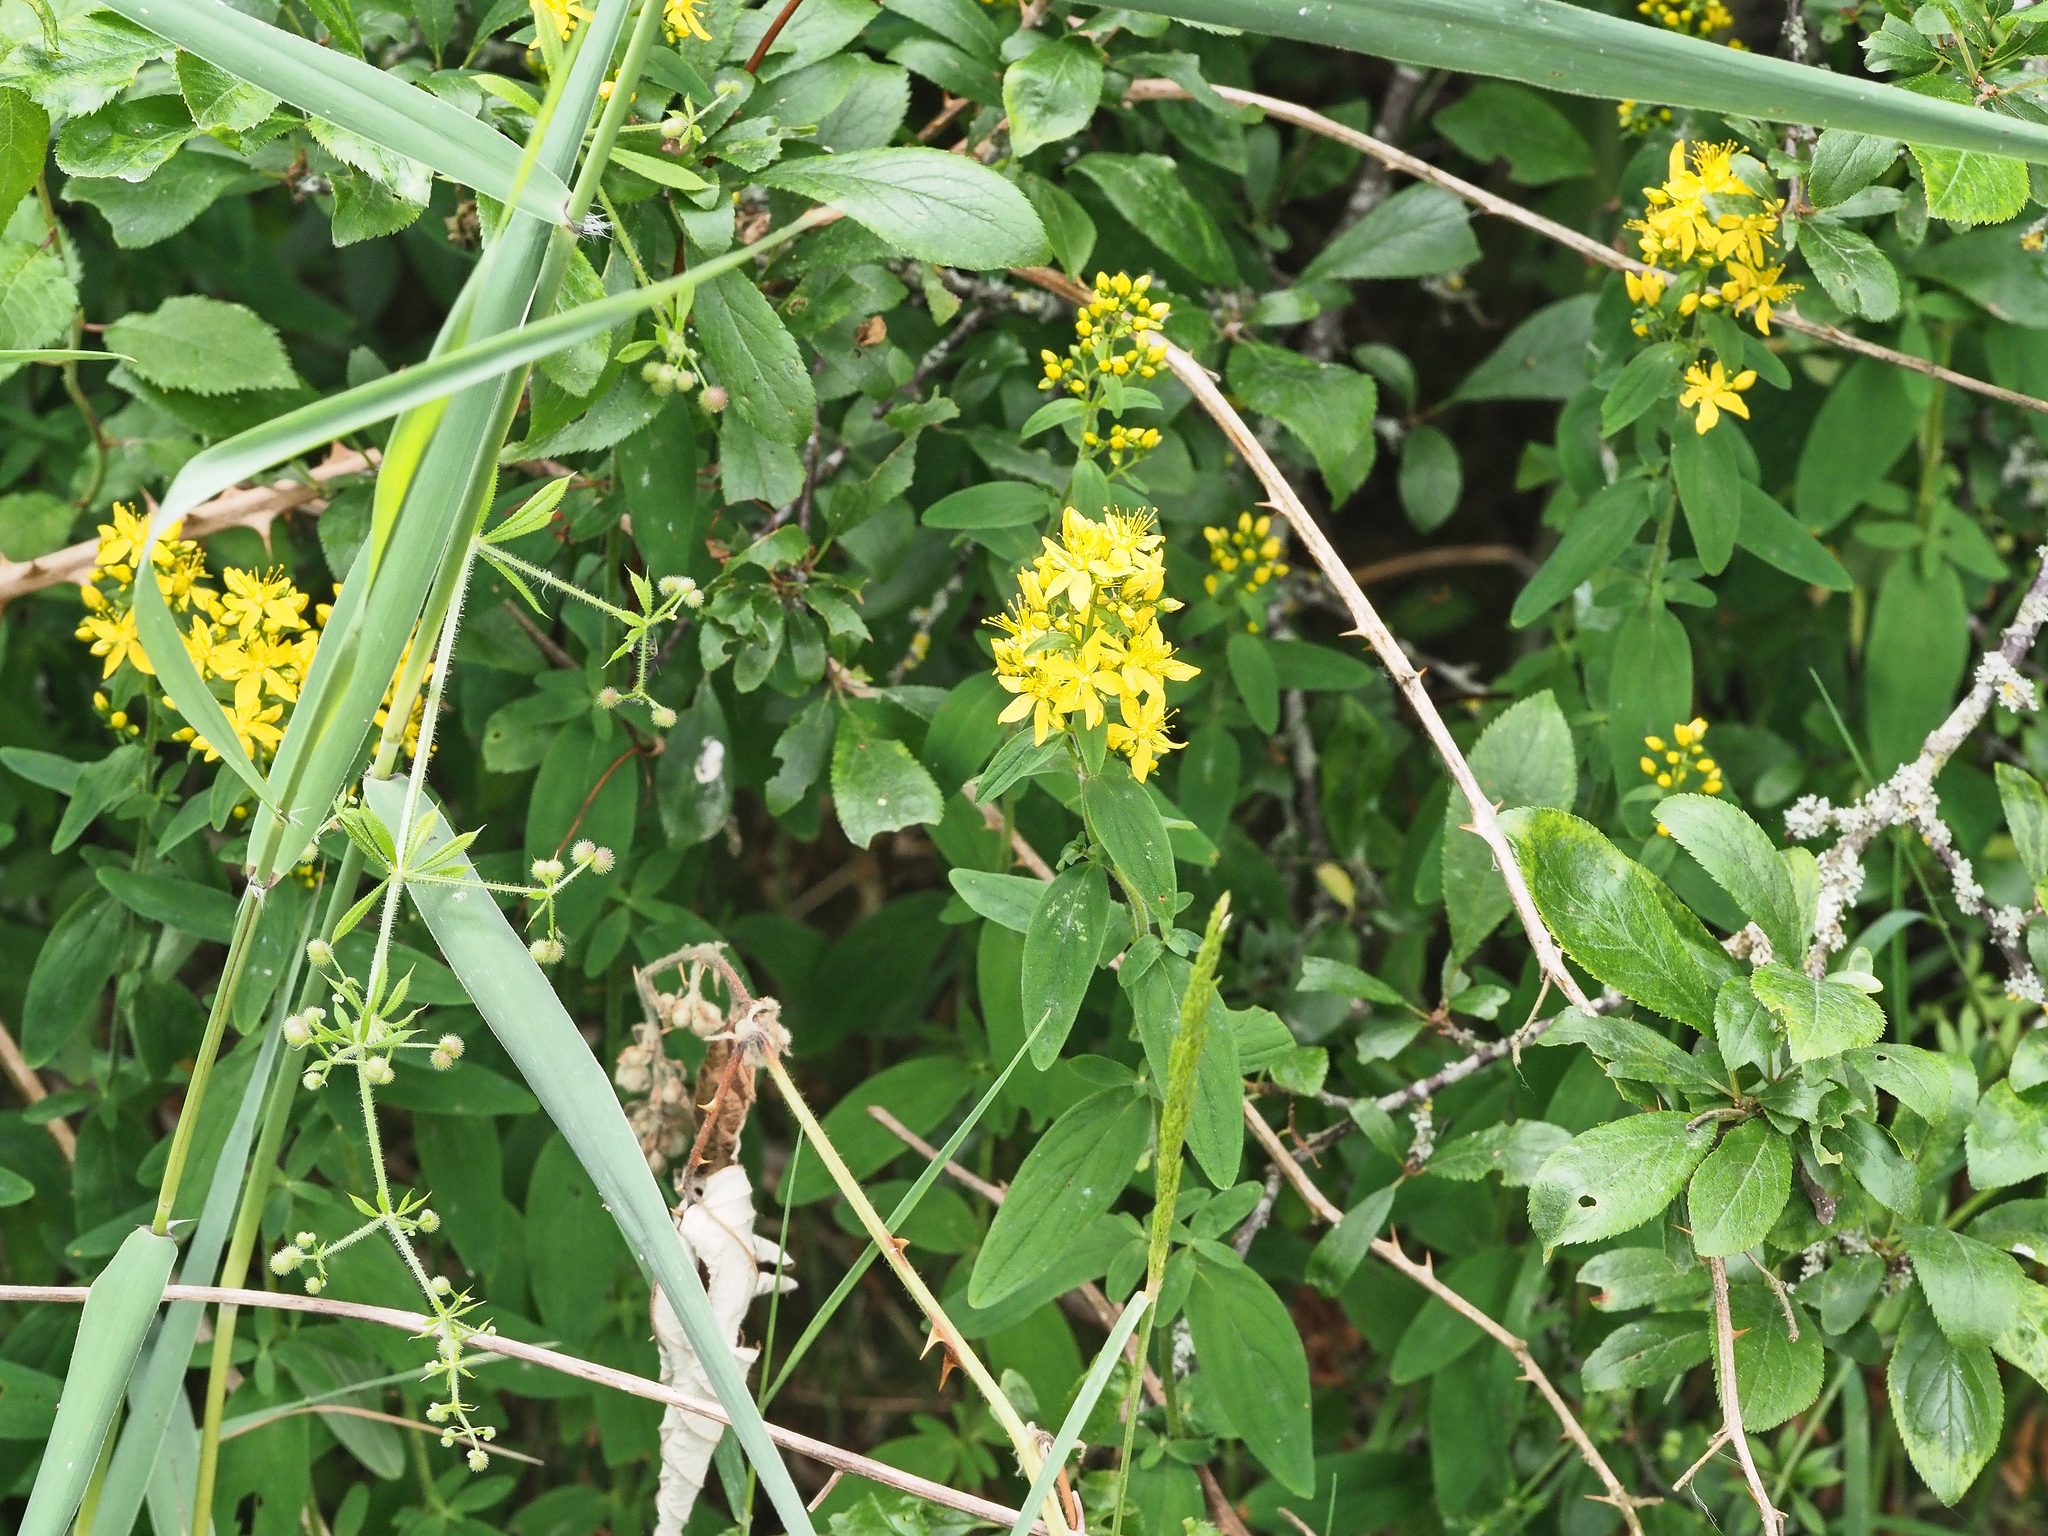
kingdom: Plantae
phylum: Tracheophyta
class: Magnoliopsida
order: Malpighiales
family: Hypericaceae
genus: Hypericum
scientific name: Hypericum hirsutum
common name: Hairy st. john's-wort
